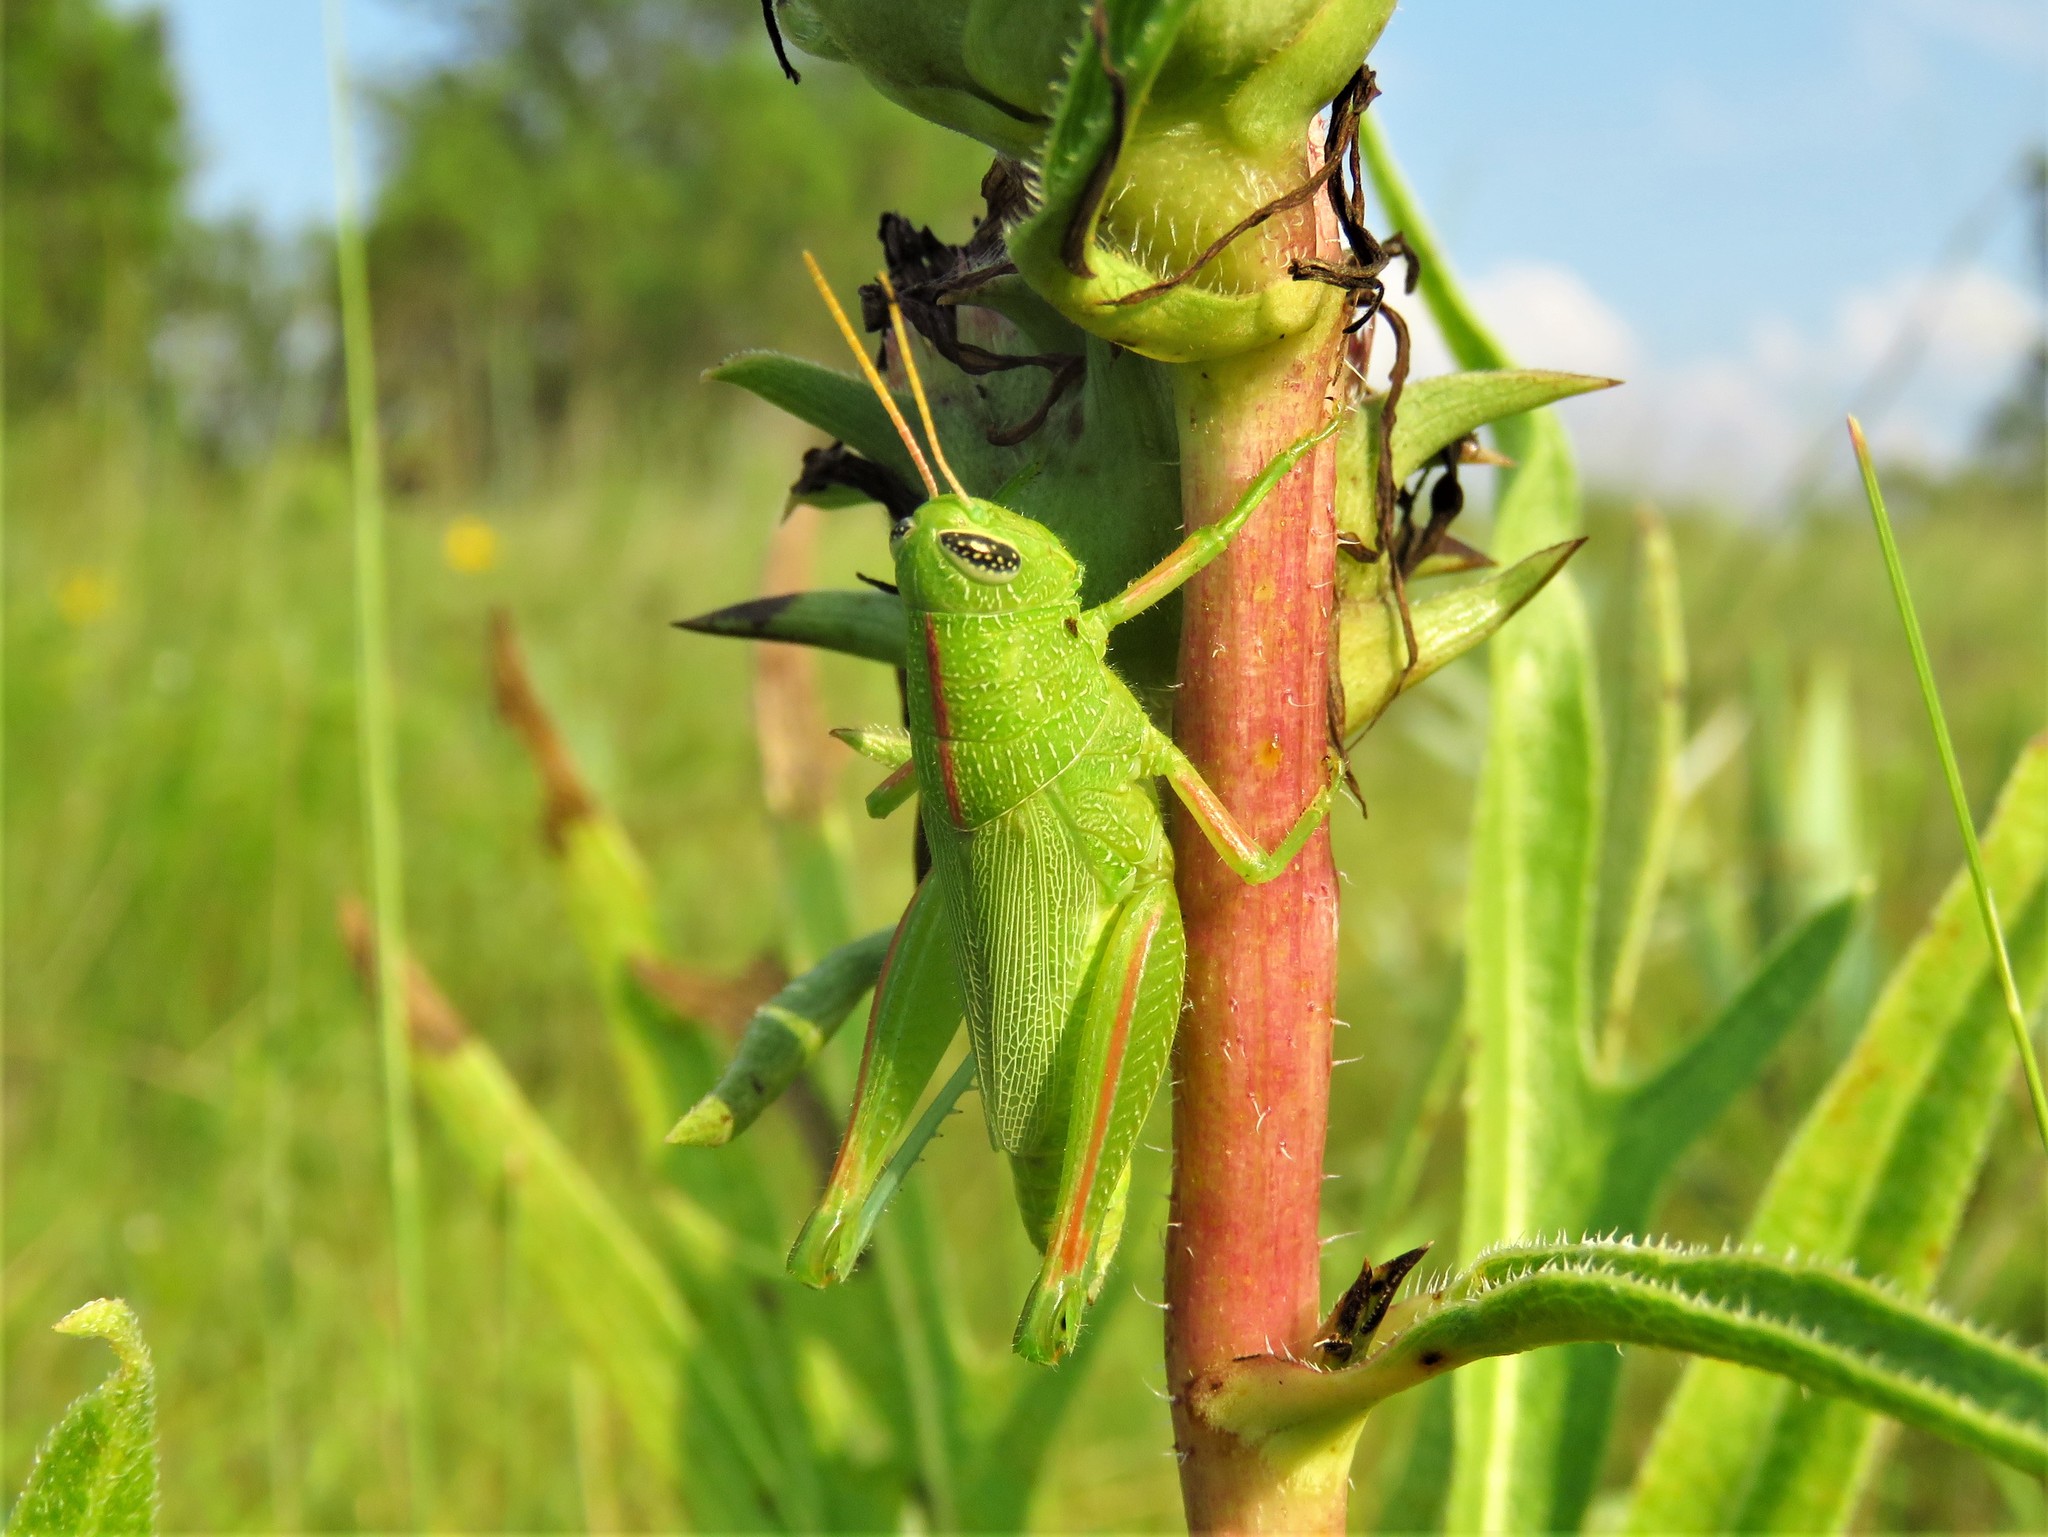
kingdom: Animalia
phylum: Arthropoda
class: Insecta
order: Orthoptera
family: Acrididae
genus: Hesperotettix
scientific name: Hesperotettix speciosus
